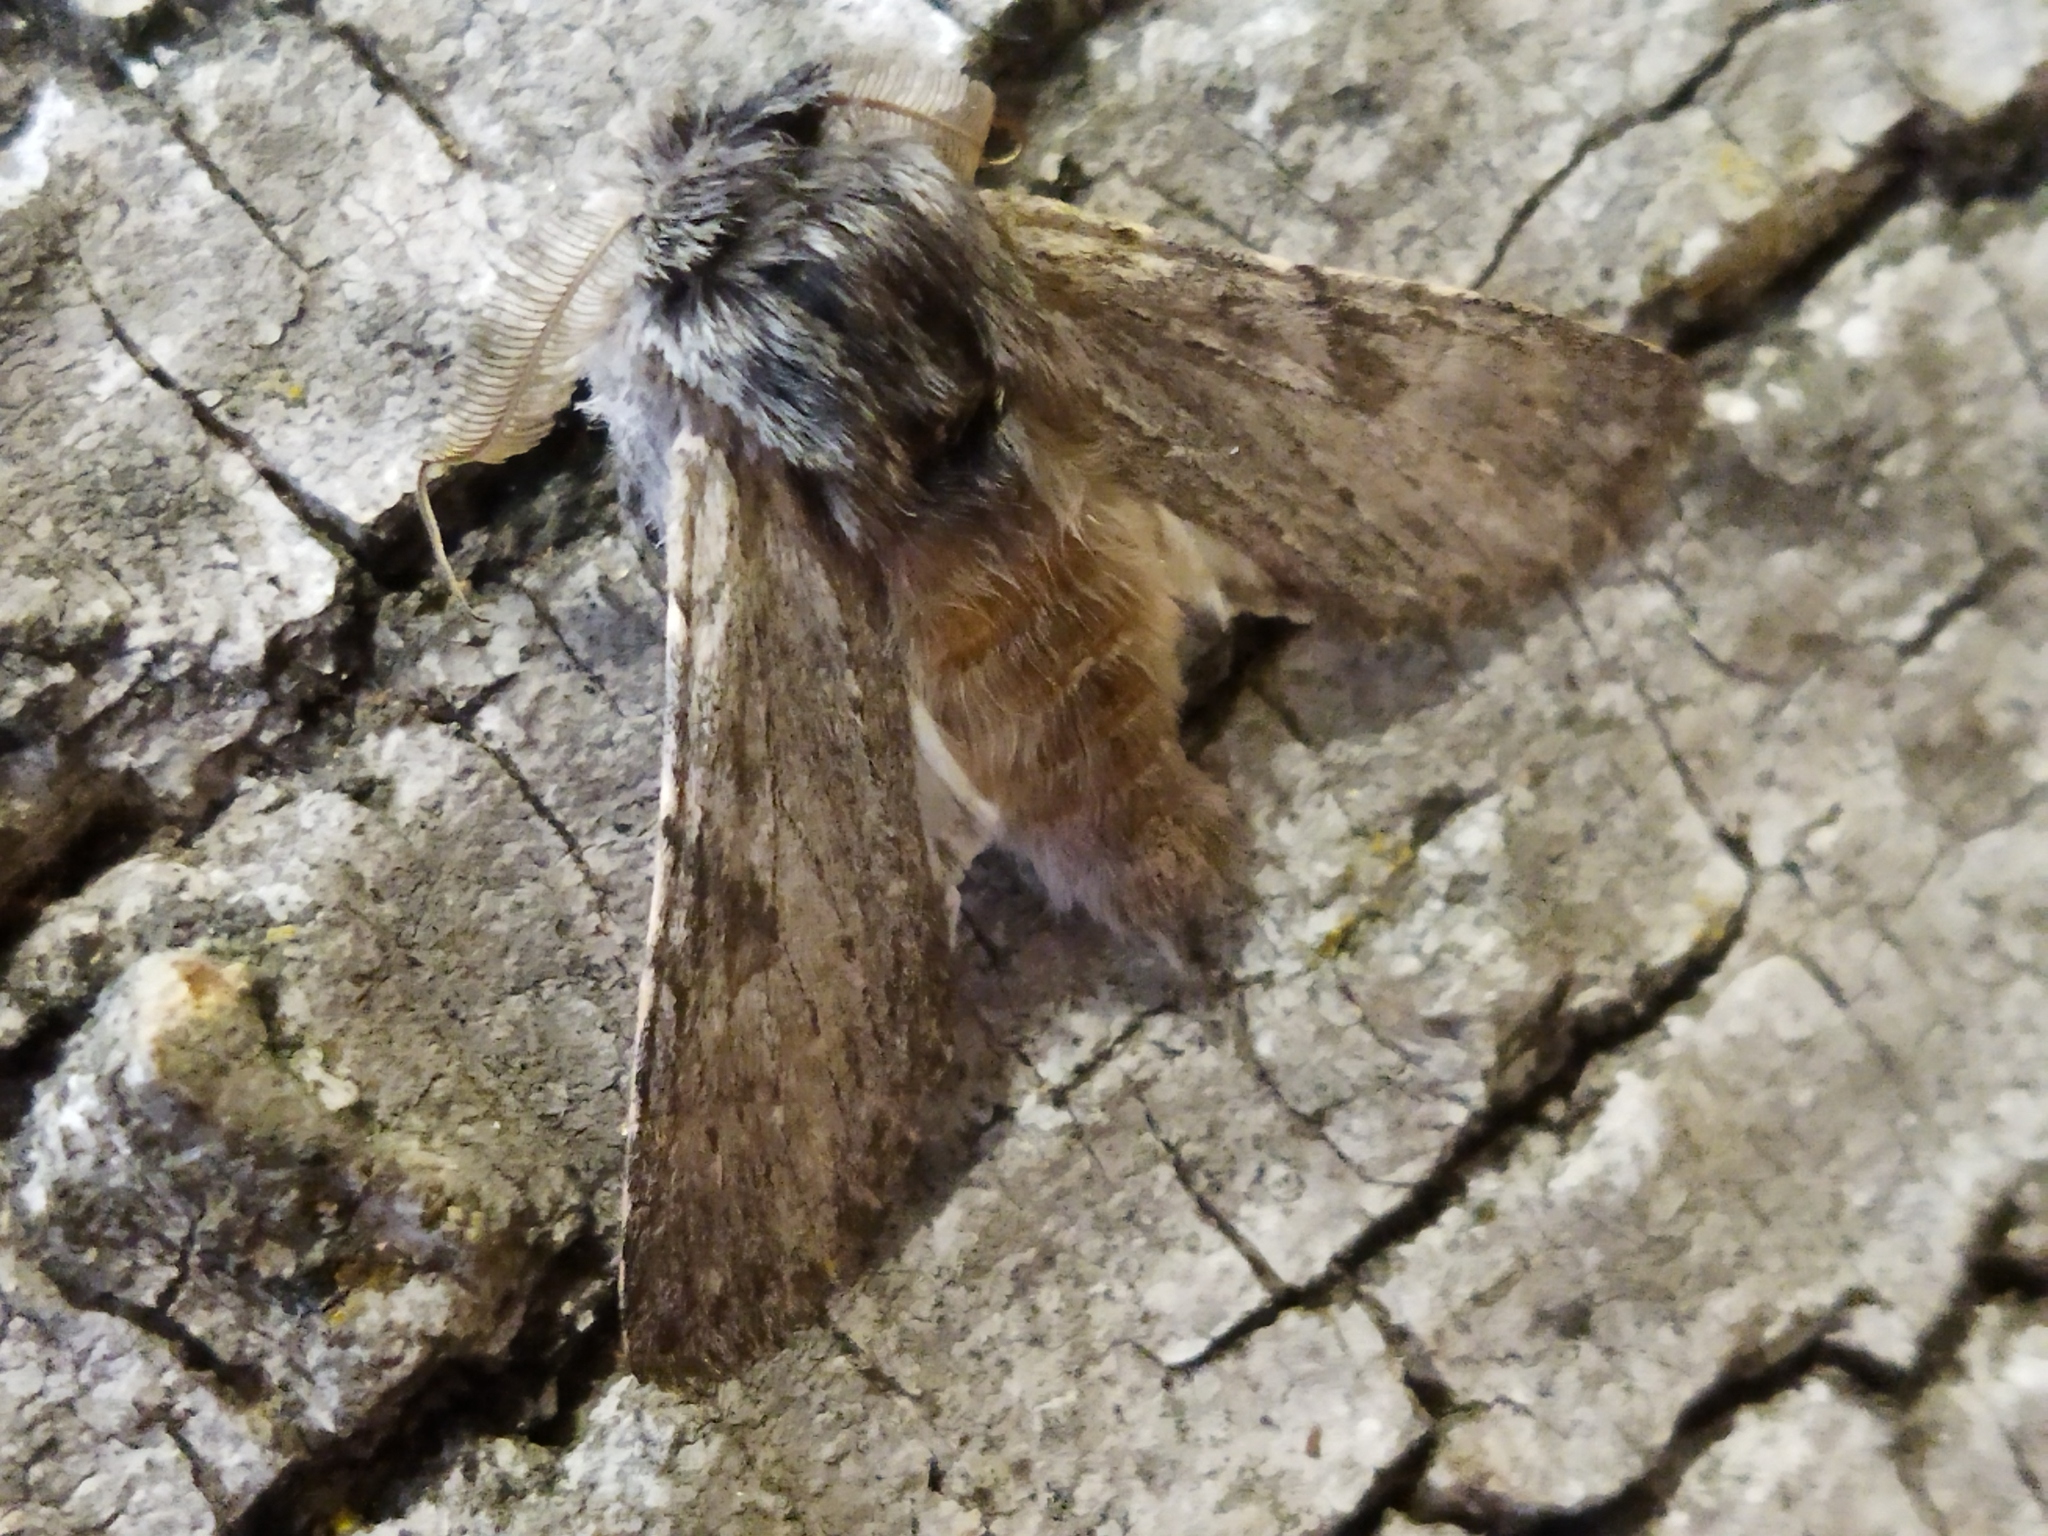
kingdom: Animalia
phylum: Arthropoda
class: Insecta
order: Lepidoptera
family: Notodontidae
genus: Dicranura
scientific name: Dicranura ulmi
